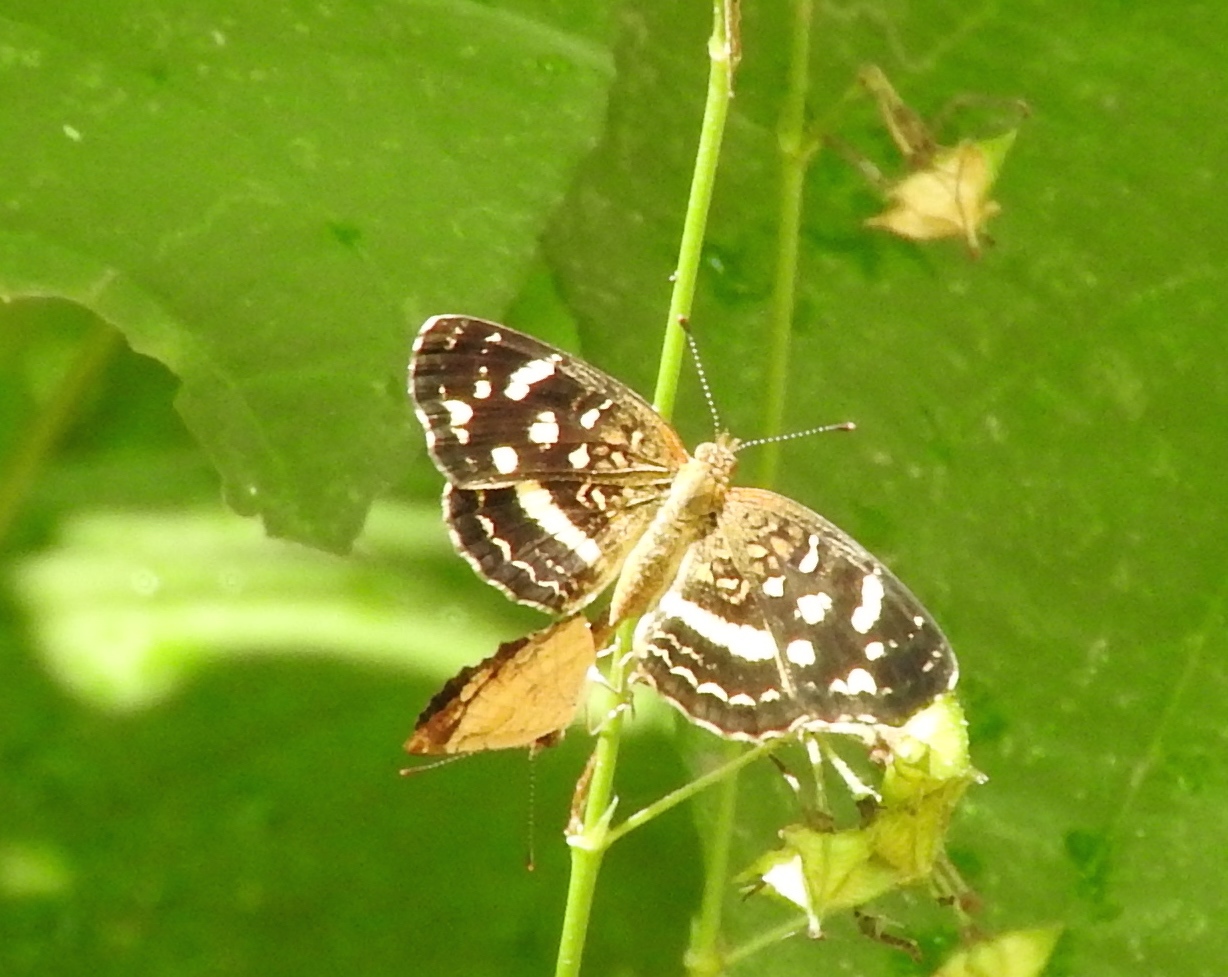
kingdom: Animalia
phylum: Arthropoda
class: Insecta
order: Lepidoptera
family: Nymphalidae
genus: Anthanassa
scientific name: Anthanassa tulcis
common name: Pale-banded crescent
